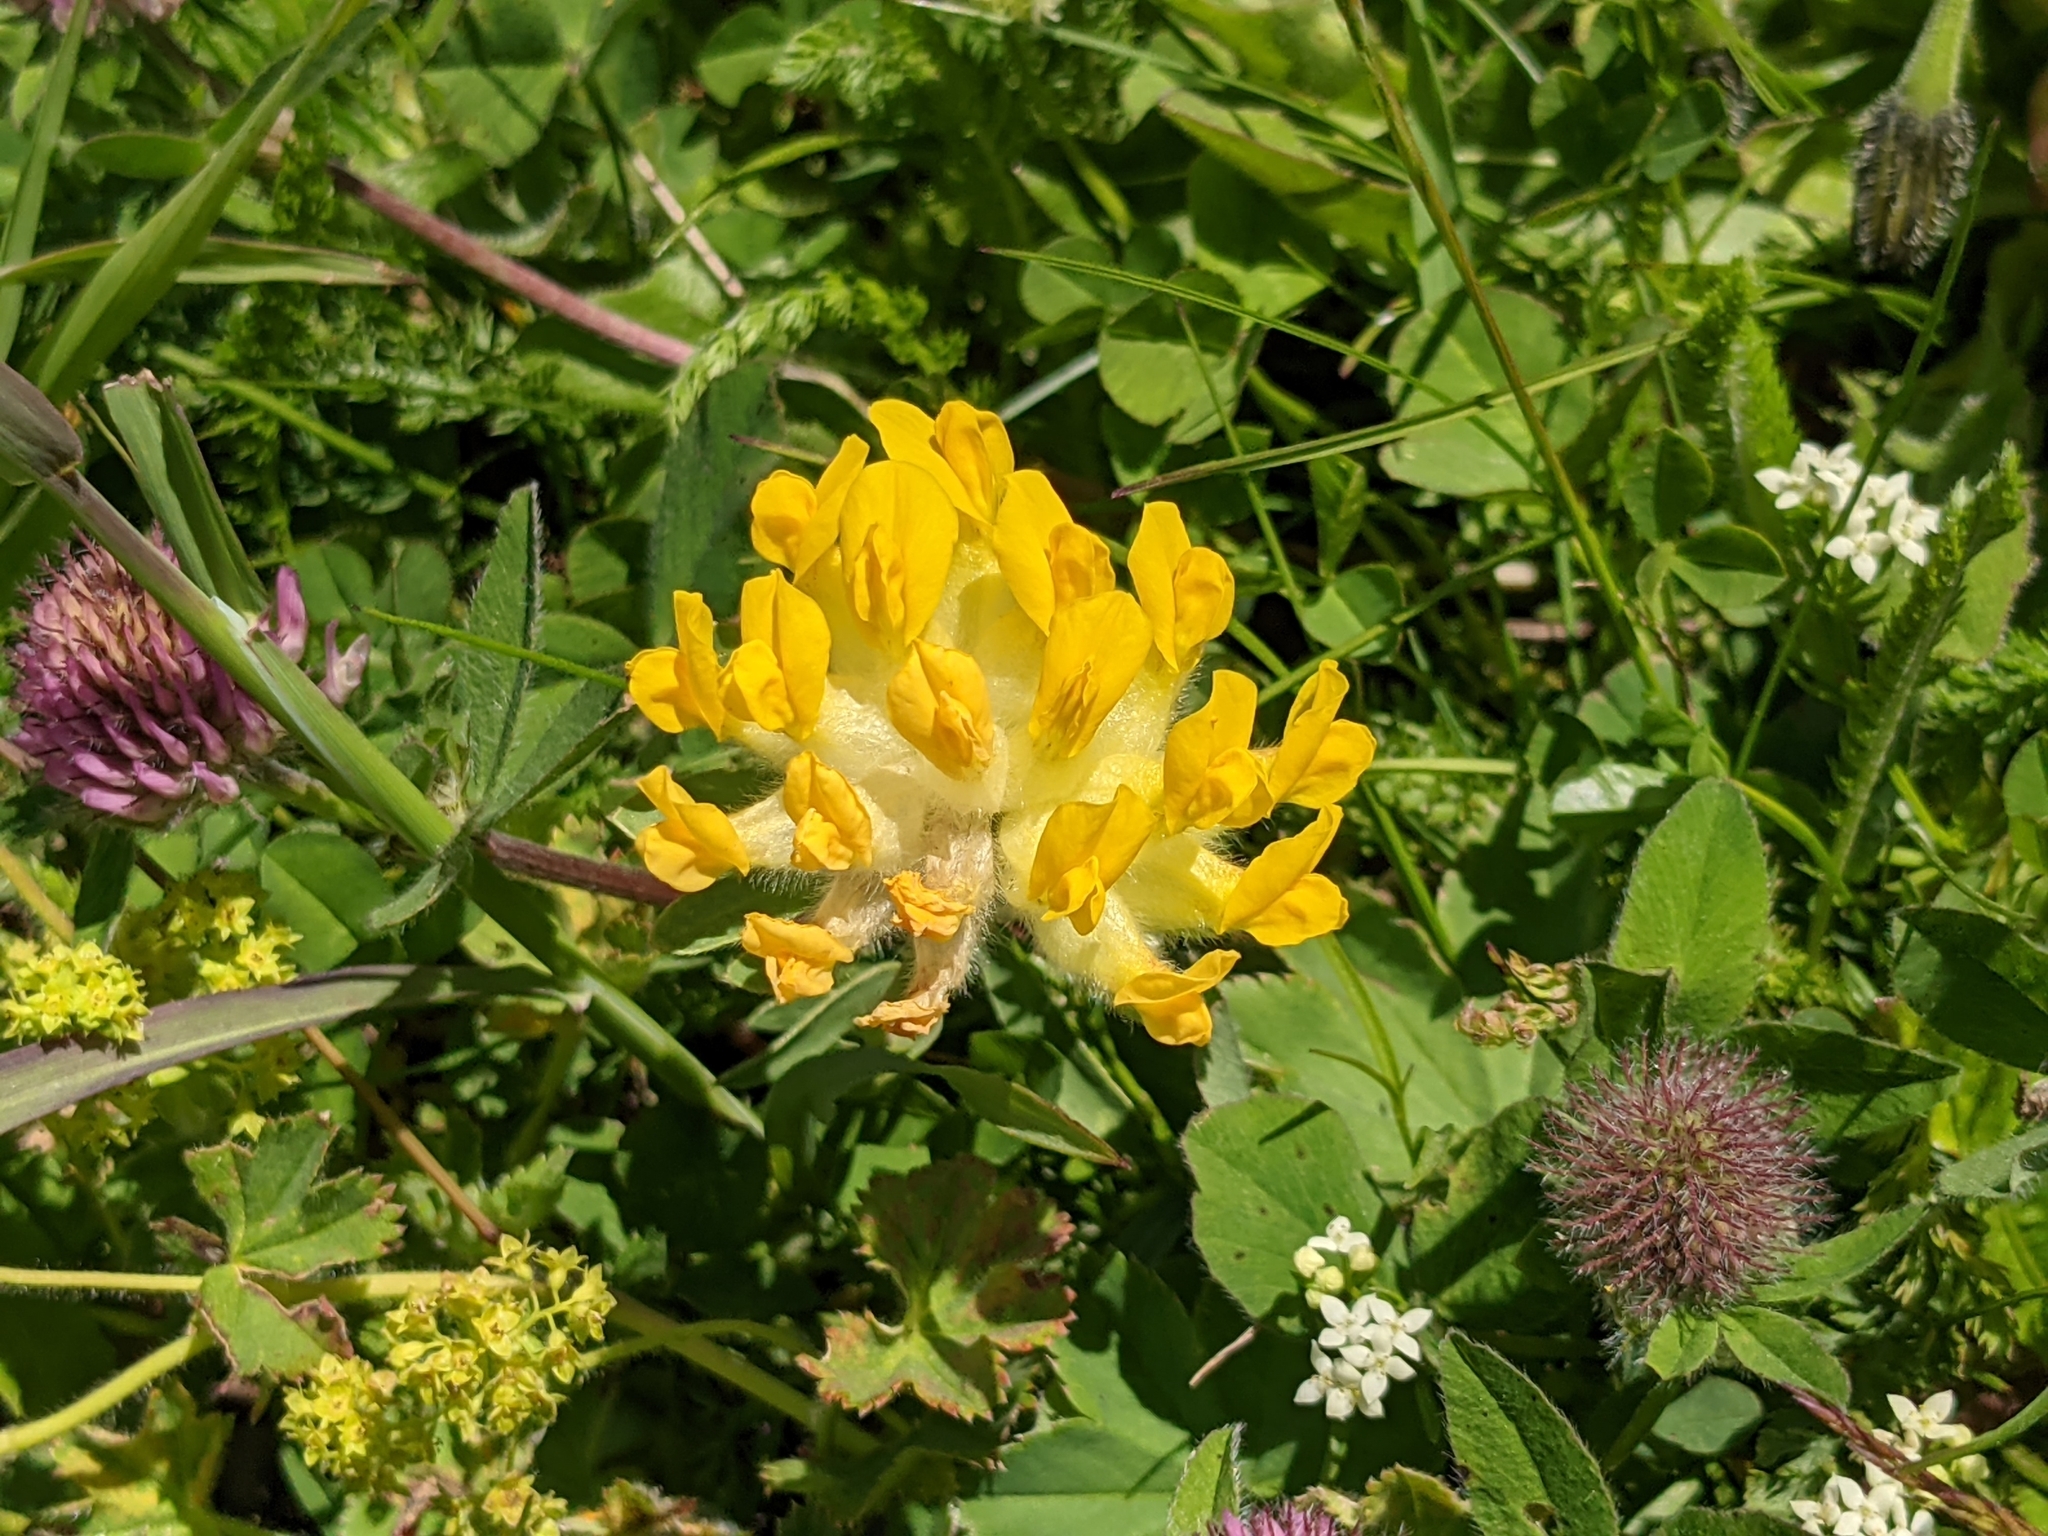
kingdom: Plantae
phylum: Tracheophyta
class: Magnoliopsida
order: Fabales
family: Fabaceae
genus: Anthyllis
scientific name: Anthyllis vulneraria
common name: Kidney vetch
